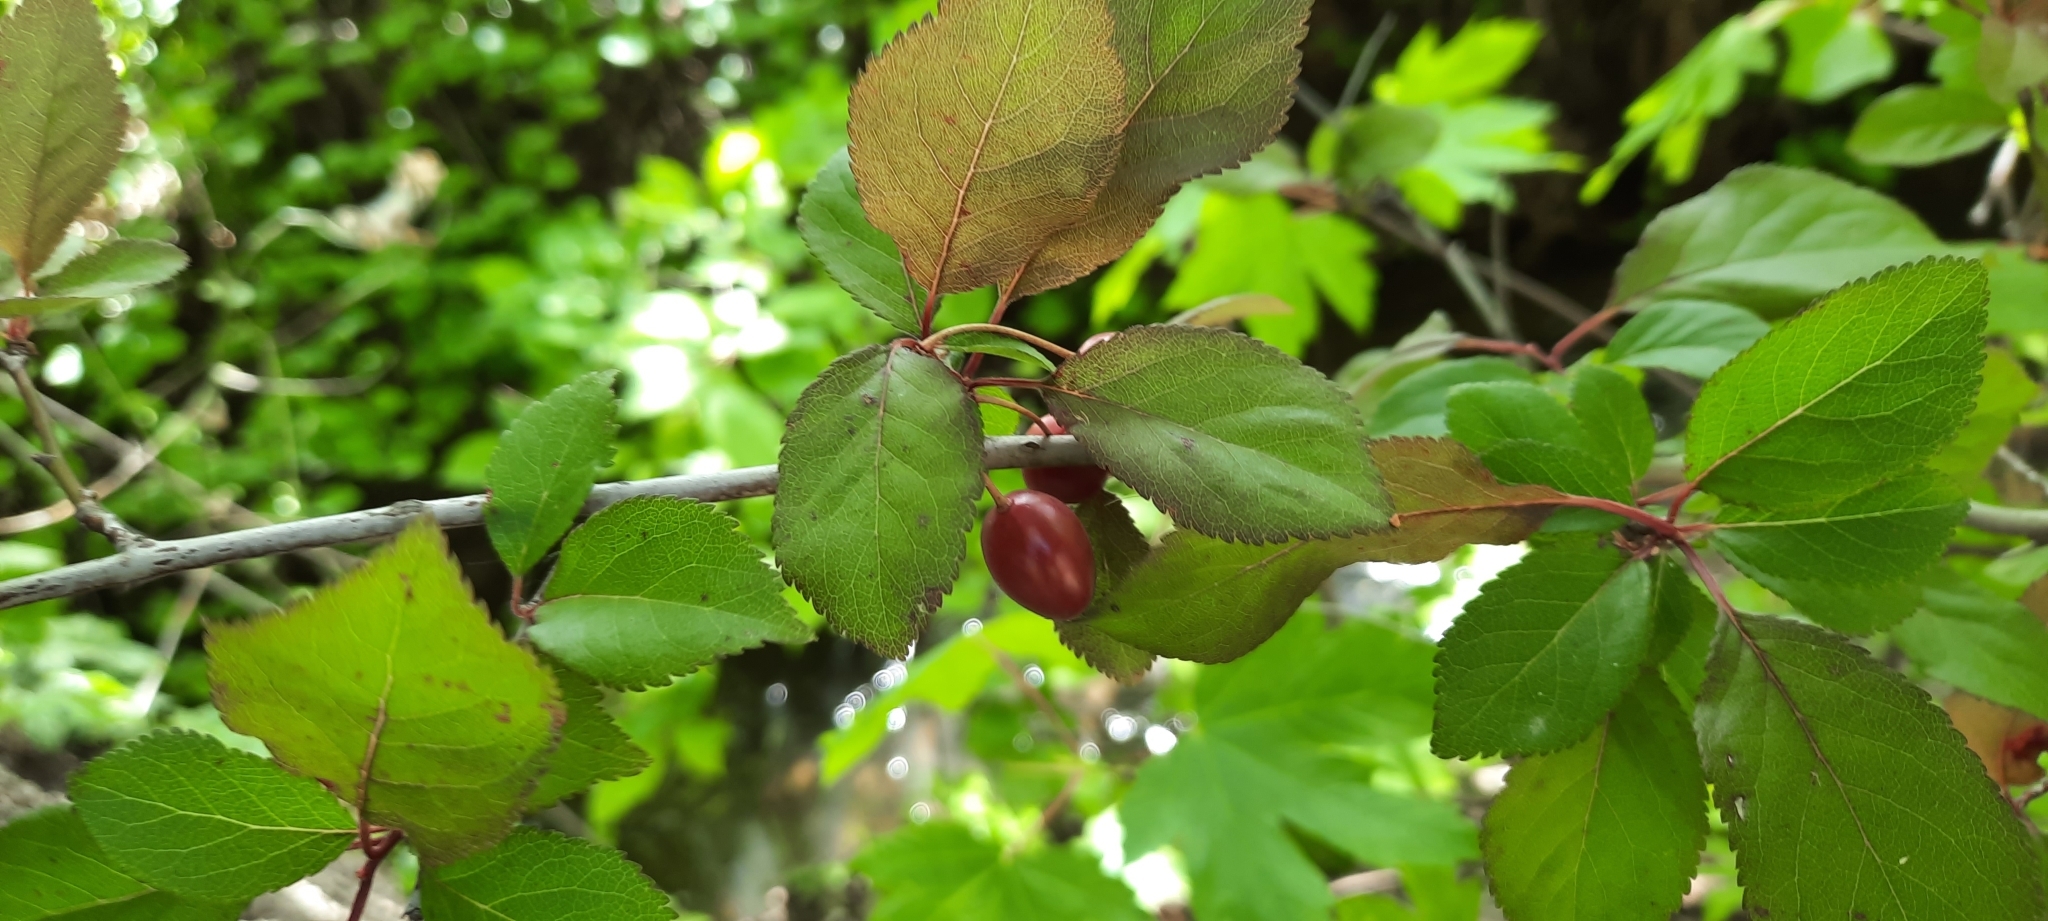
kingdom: Plantae
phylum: Tracheophyta
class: Magnoliopsida
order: Rosales
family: Rosaceae
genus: Prunus
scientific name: Prunus cerasifera
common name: Cherry plum
